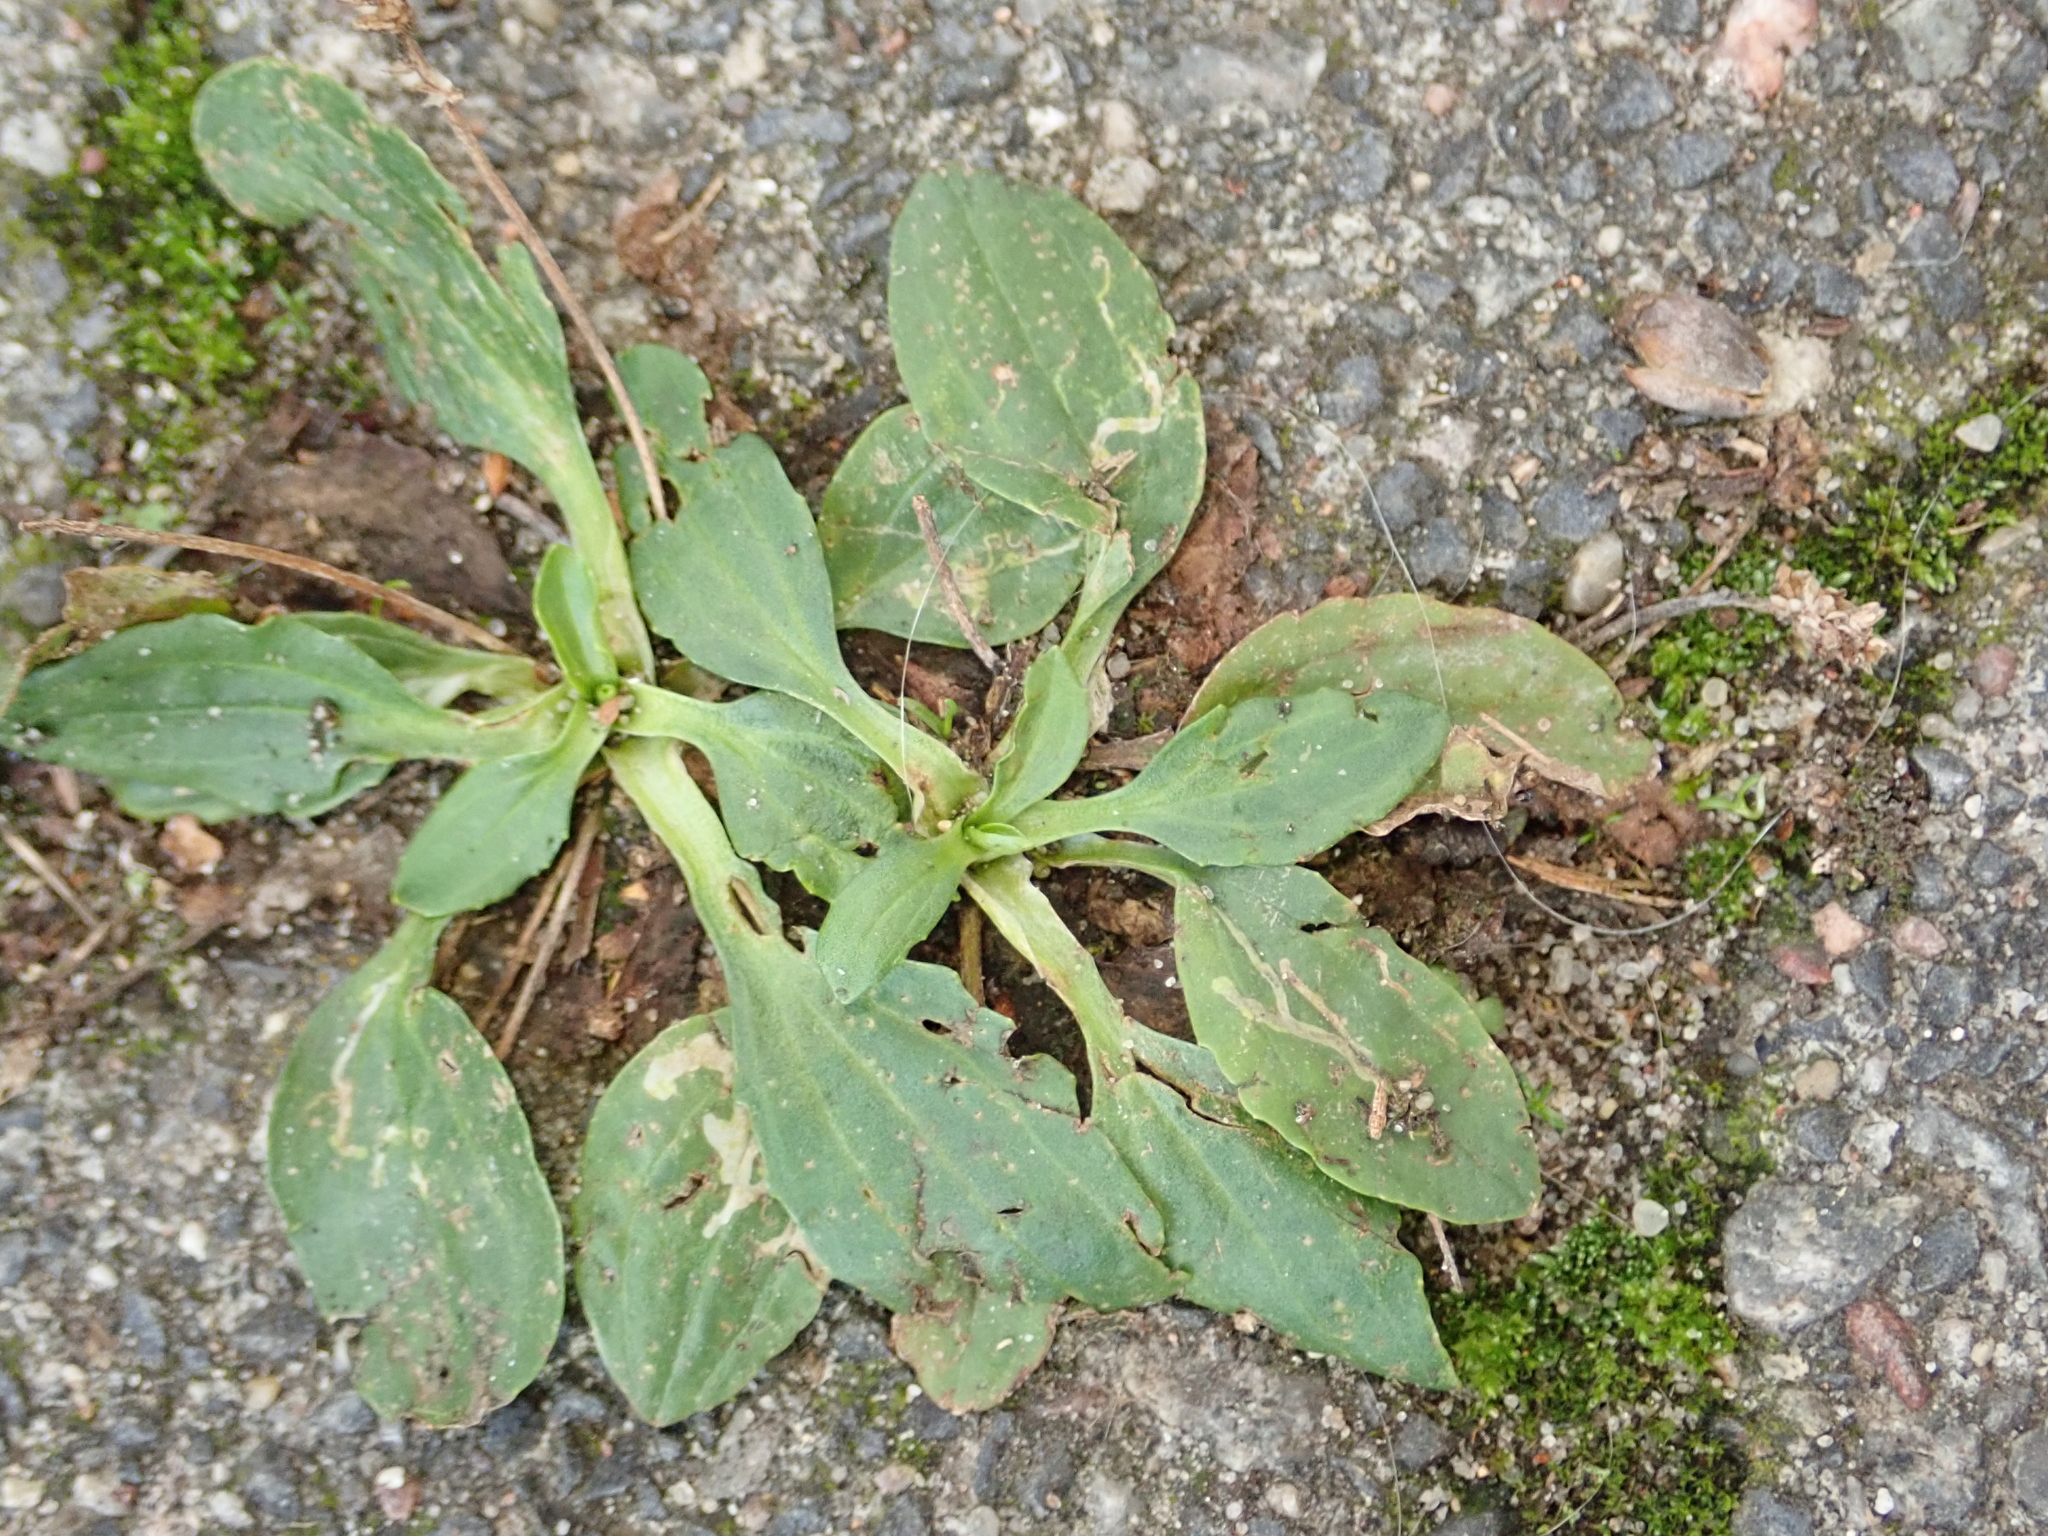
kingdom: Plantae
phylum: Tracheophyta
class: Magnoliopsida
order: Lamiales
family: Plantaginaceae
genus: Plantago
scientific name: Plantago major
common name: Common plantain
